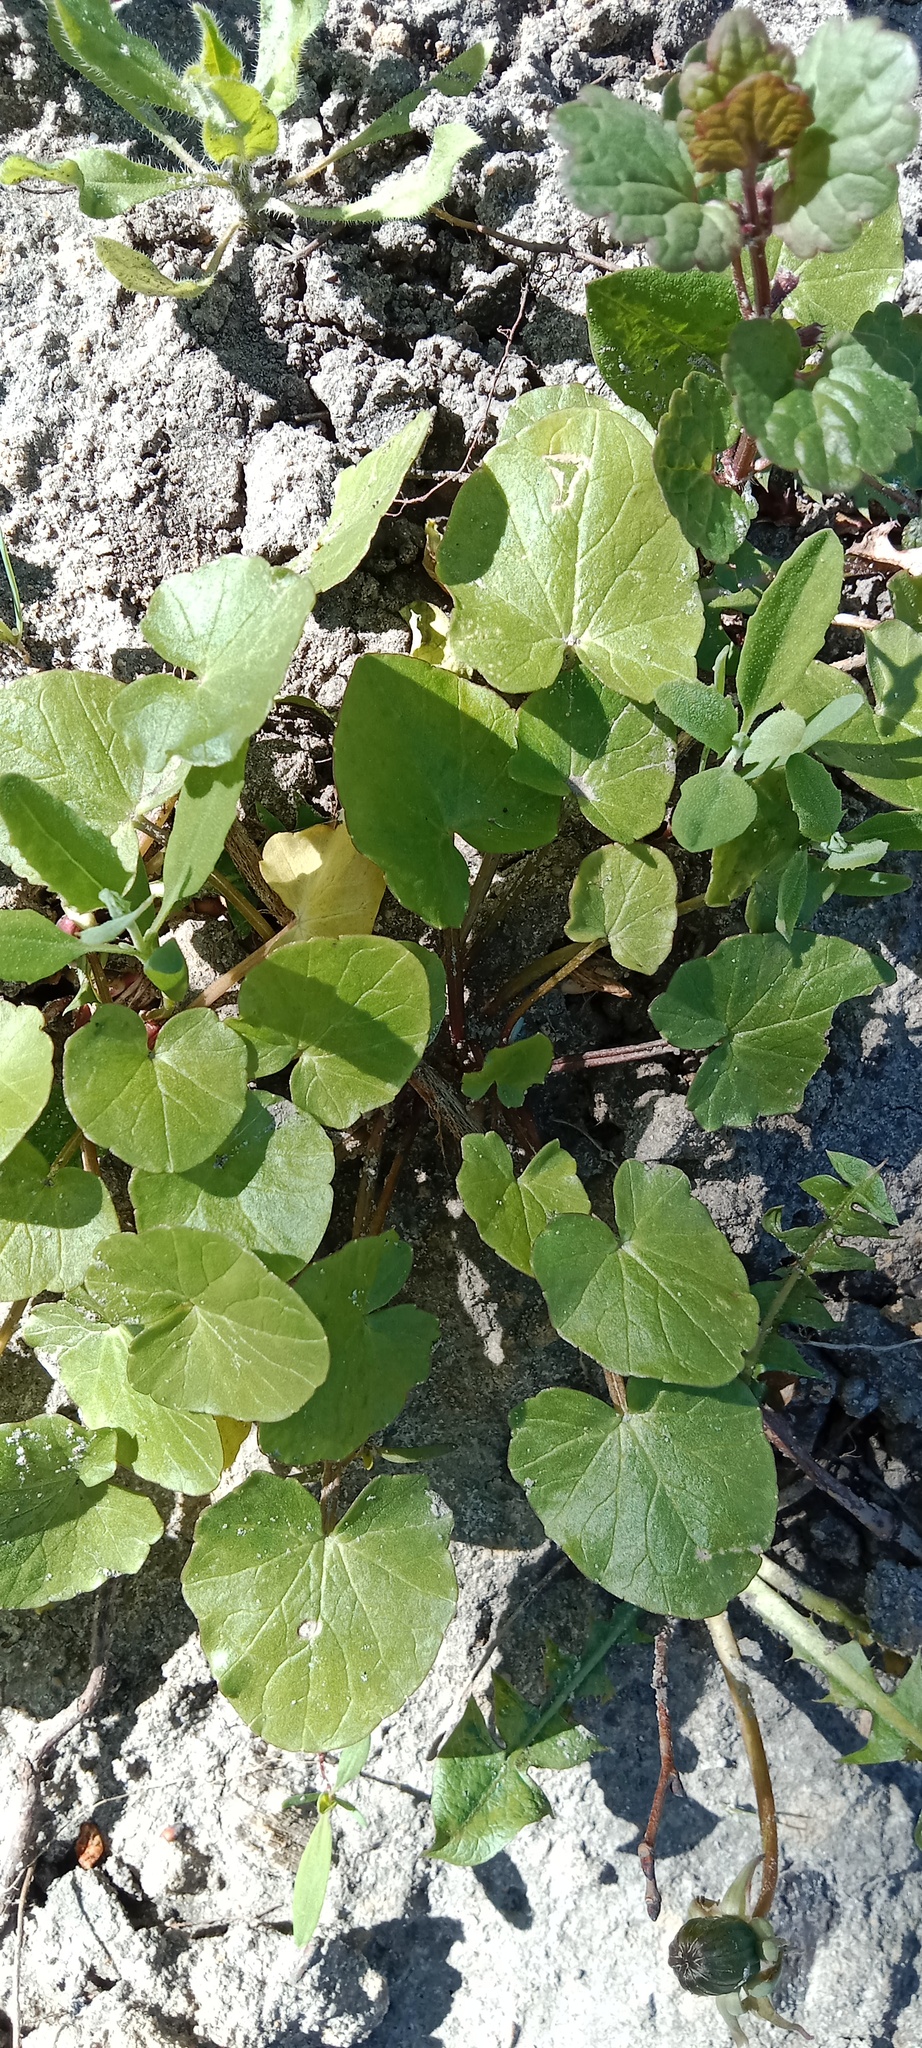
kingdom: Plantae
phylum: Tracheophyta
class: Magnoliopsida
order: Asterales
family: Asteraceae
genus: Tussilago
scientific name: Tussilago farfara
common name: Coltsfoot
